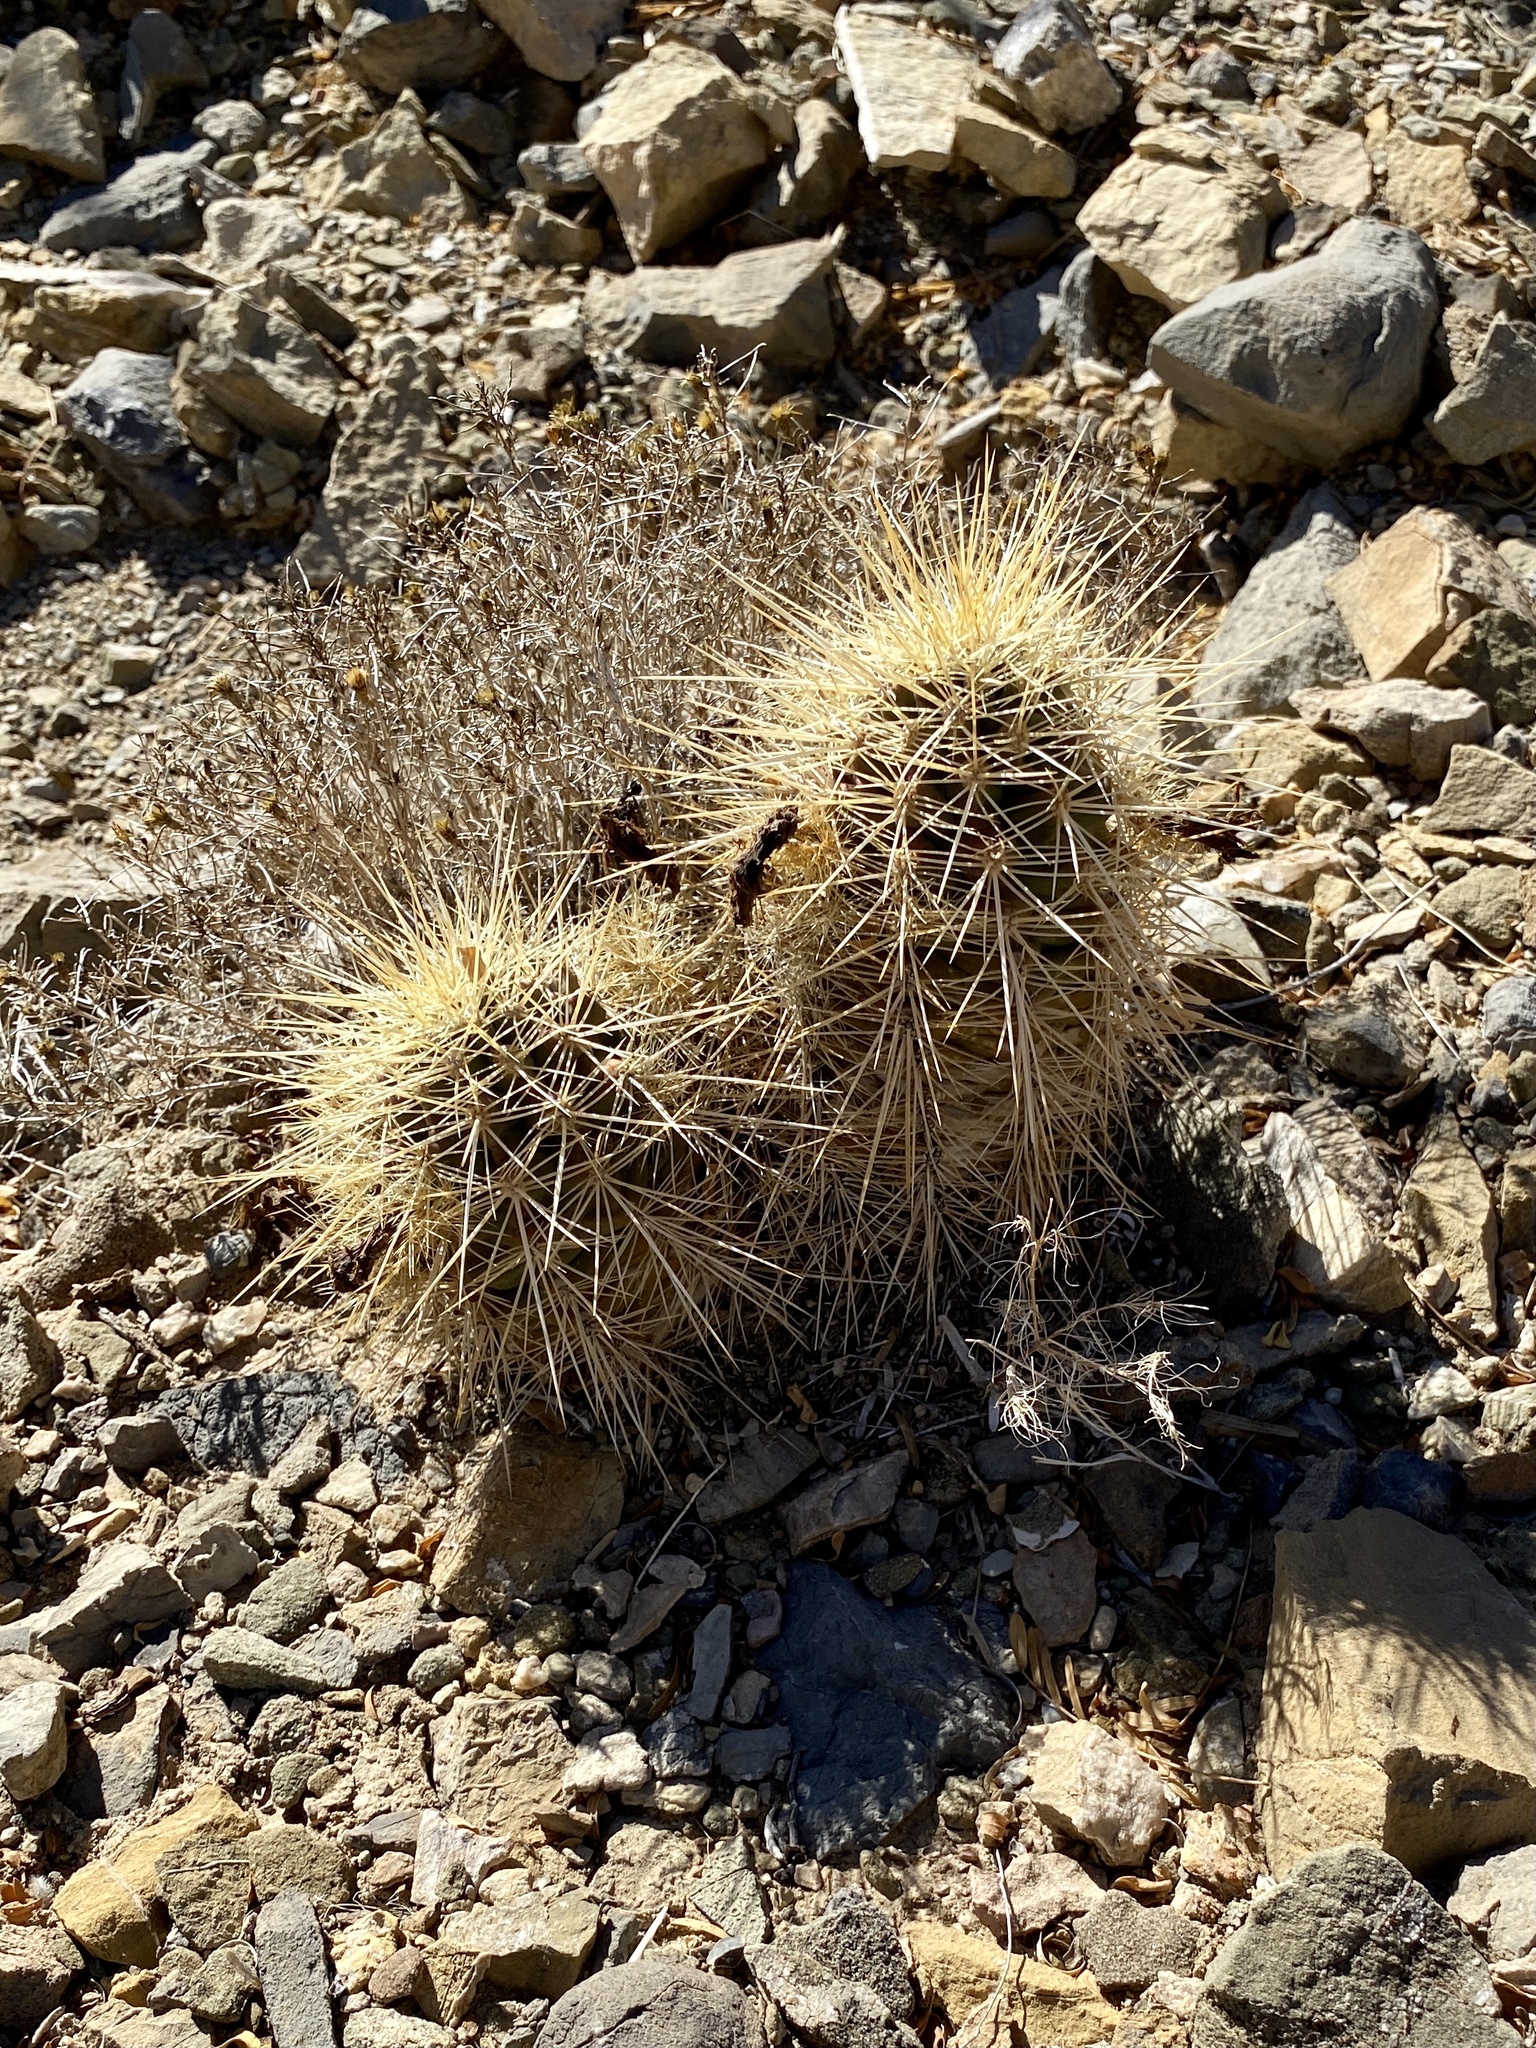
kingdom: Plantae
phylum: Tracheophyta
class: Magnoliopsida
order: Caryophyllales
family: Cactaceae
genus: Echinocereus
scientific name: Echinocereus coccineus
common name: Scarlet hedgehog cactus
